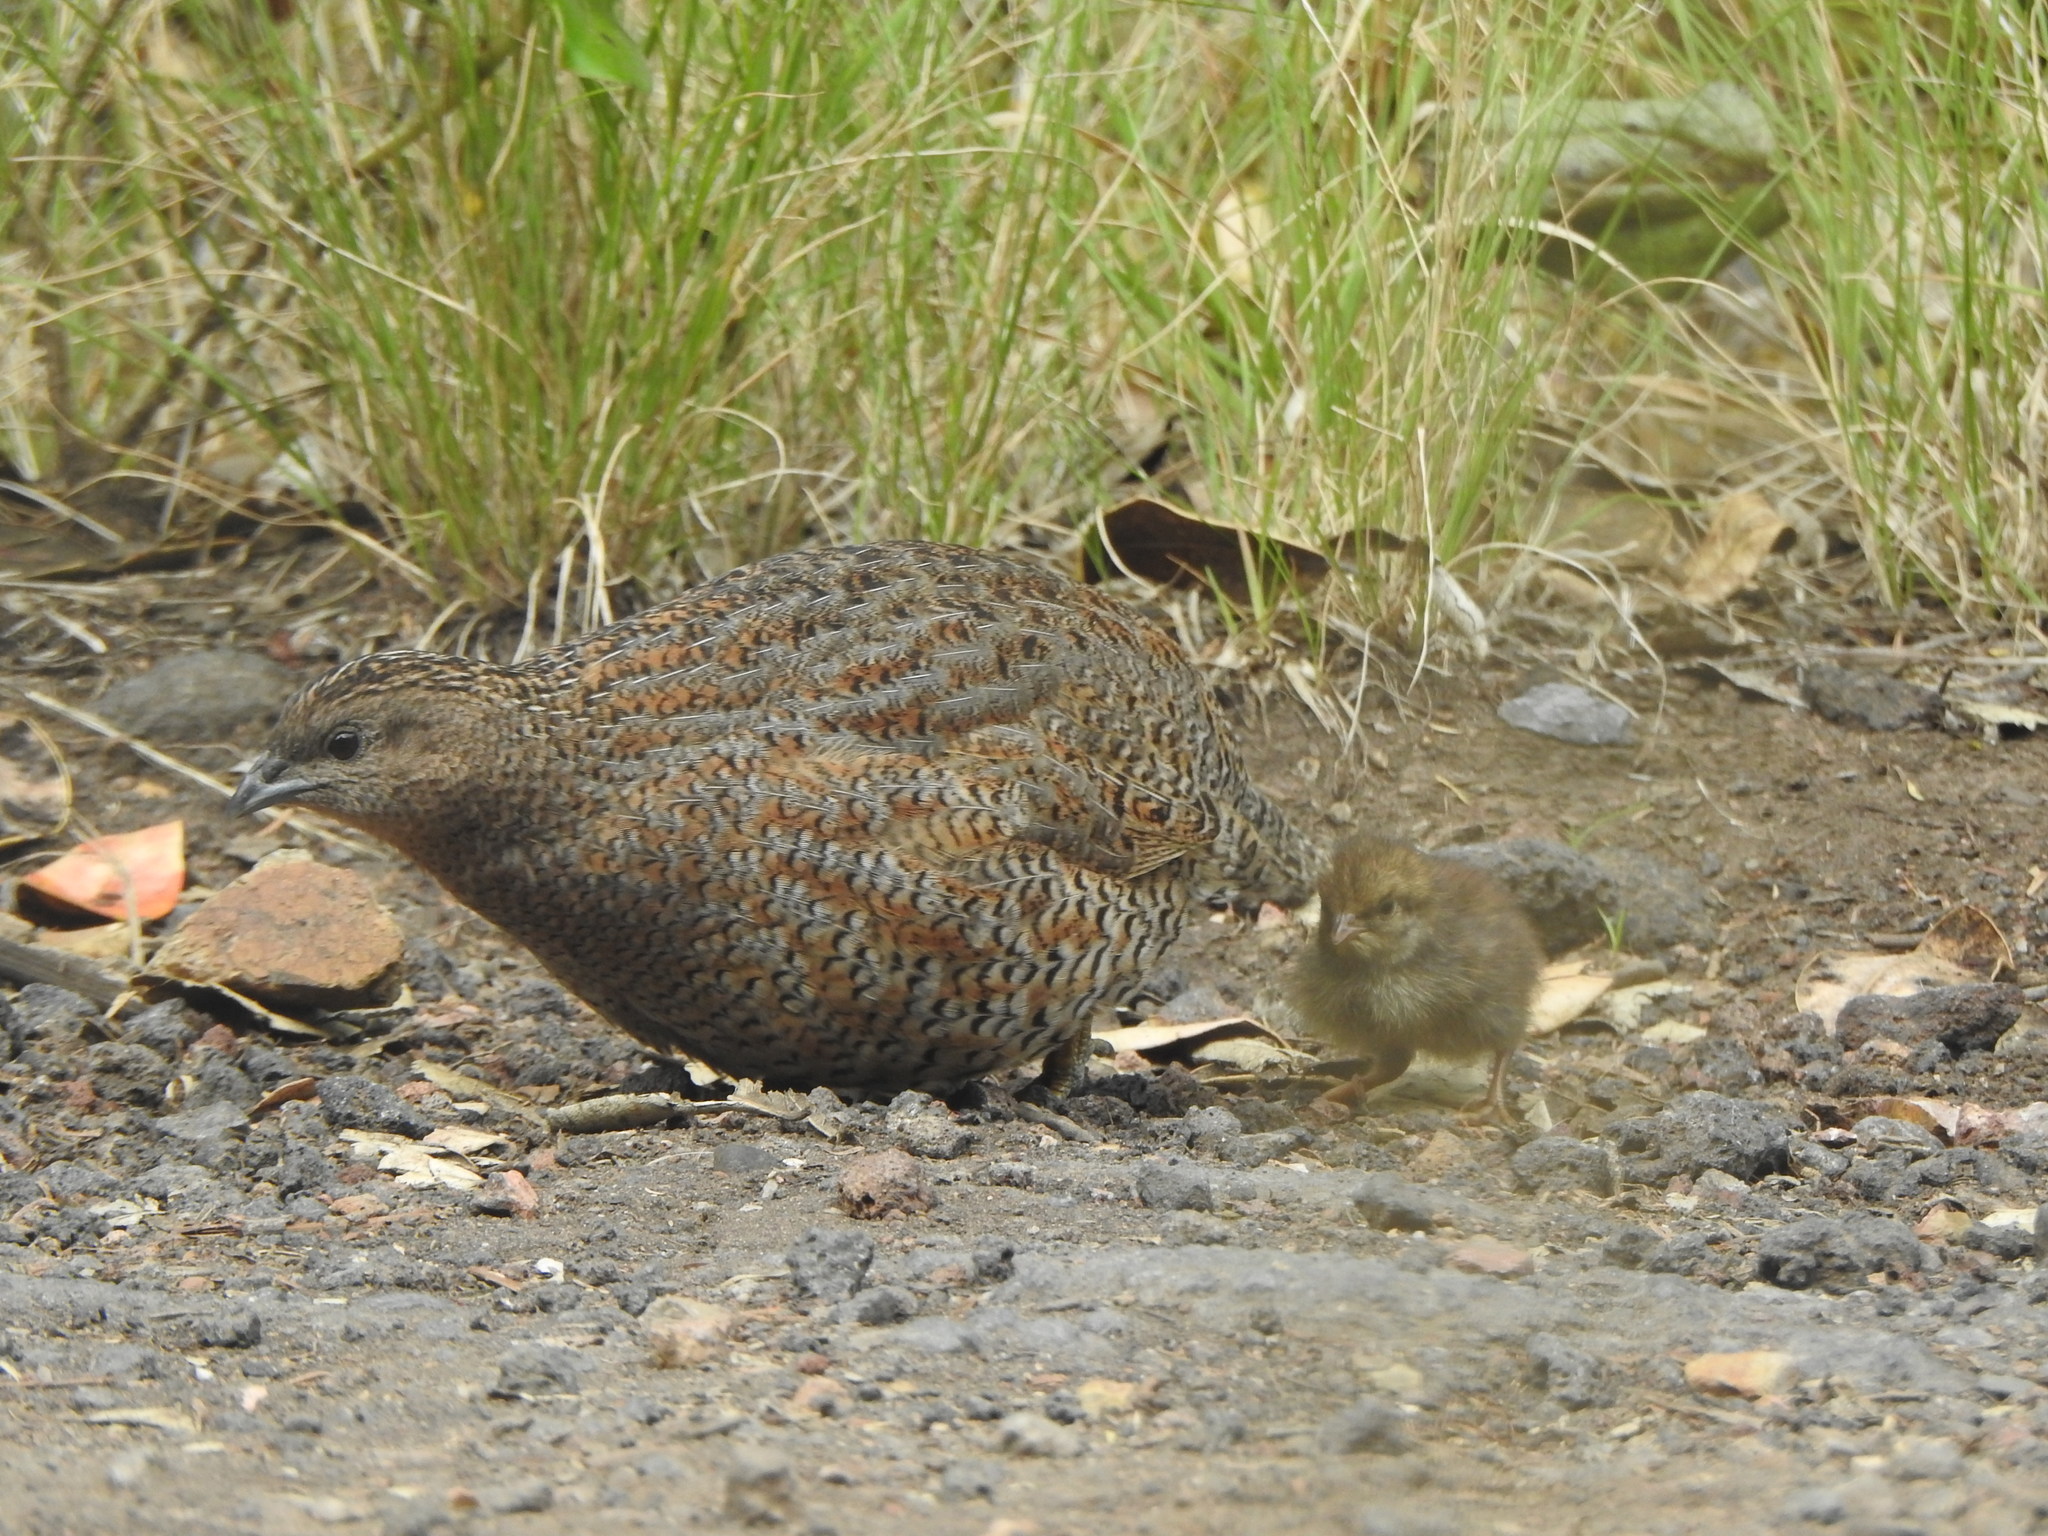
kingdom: Animalia
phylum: Chordata
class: Aves
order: Galliformes
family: Phasianidae
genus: Synoicus
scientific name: Synoicus ypsilophorus
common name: Brown quail
